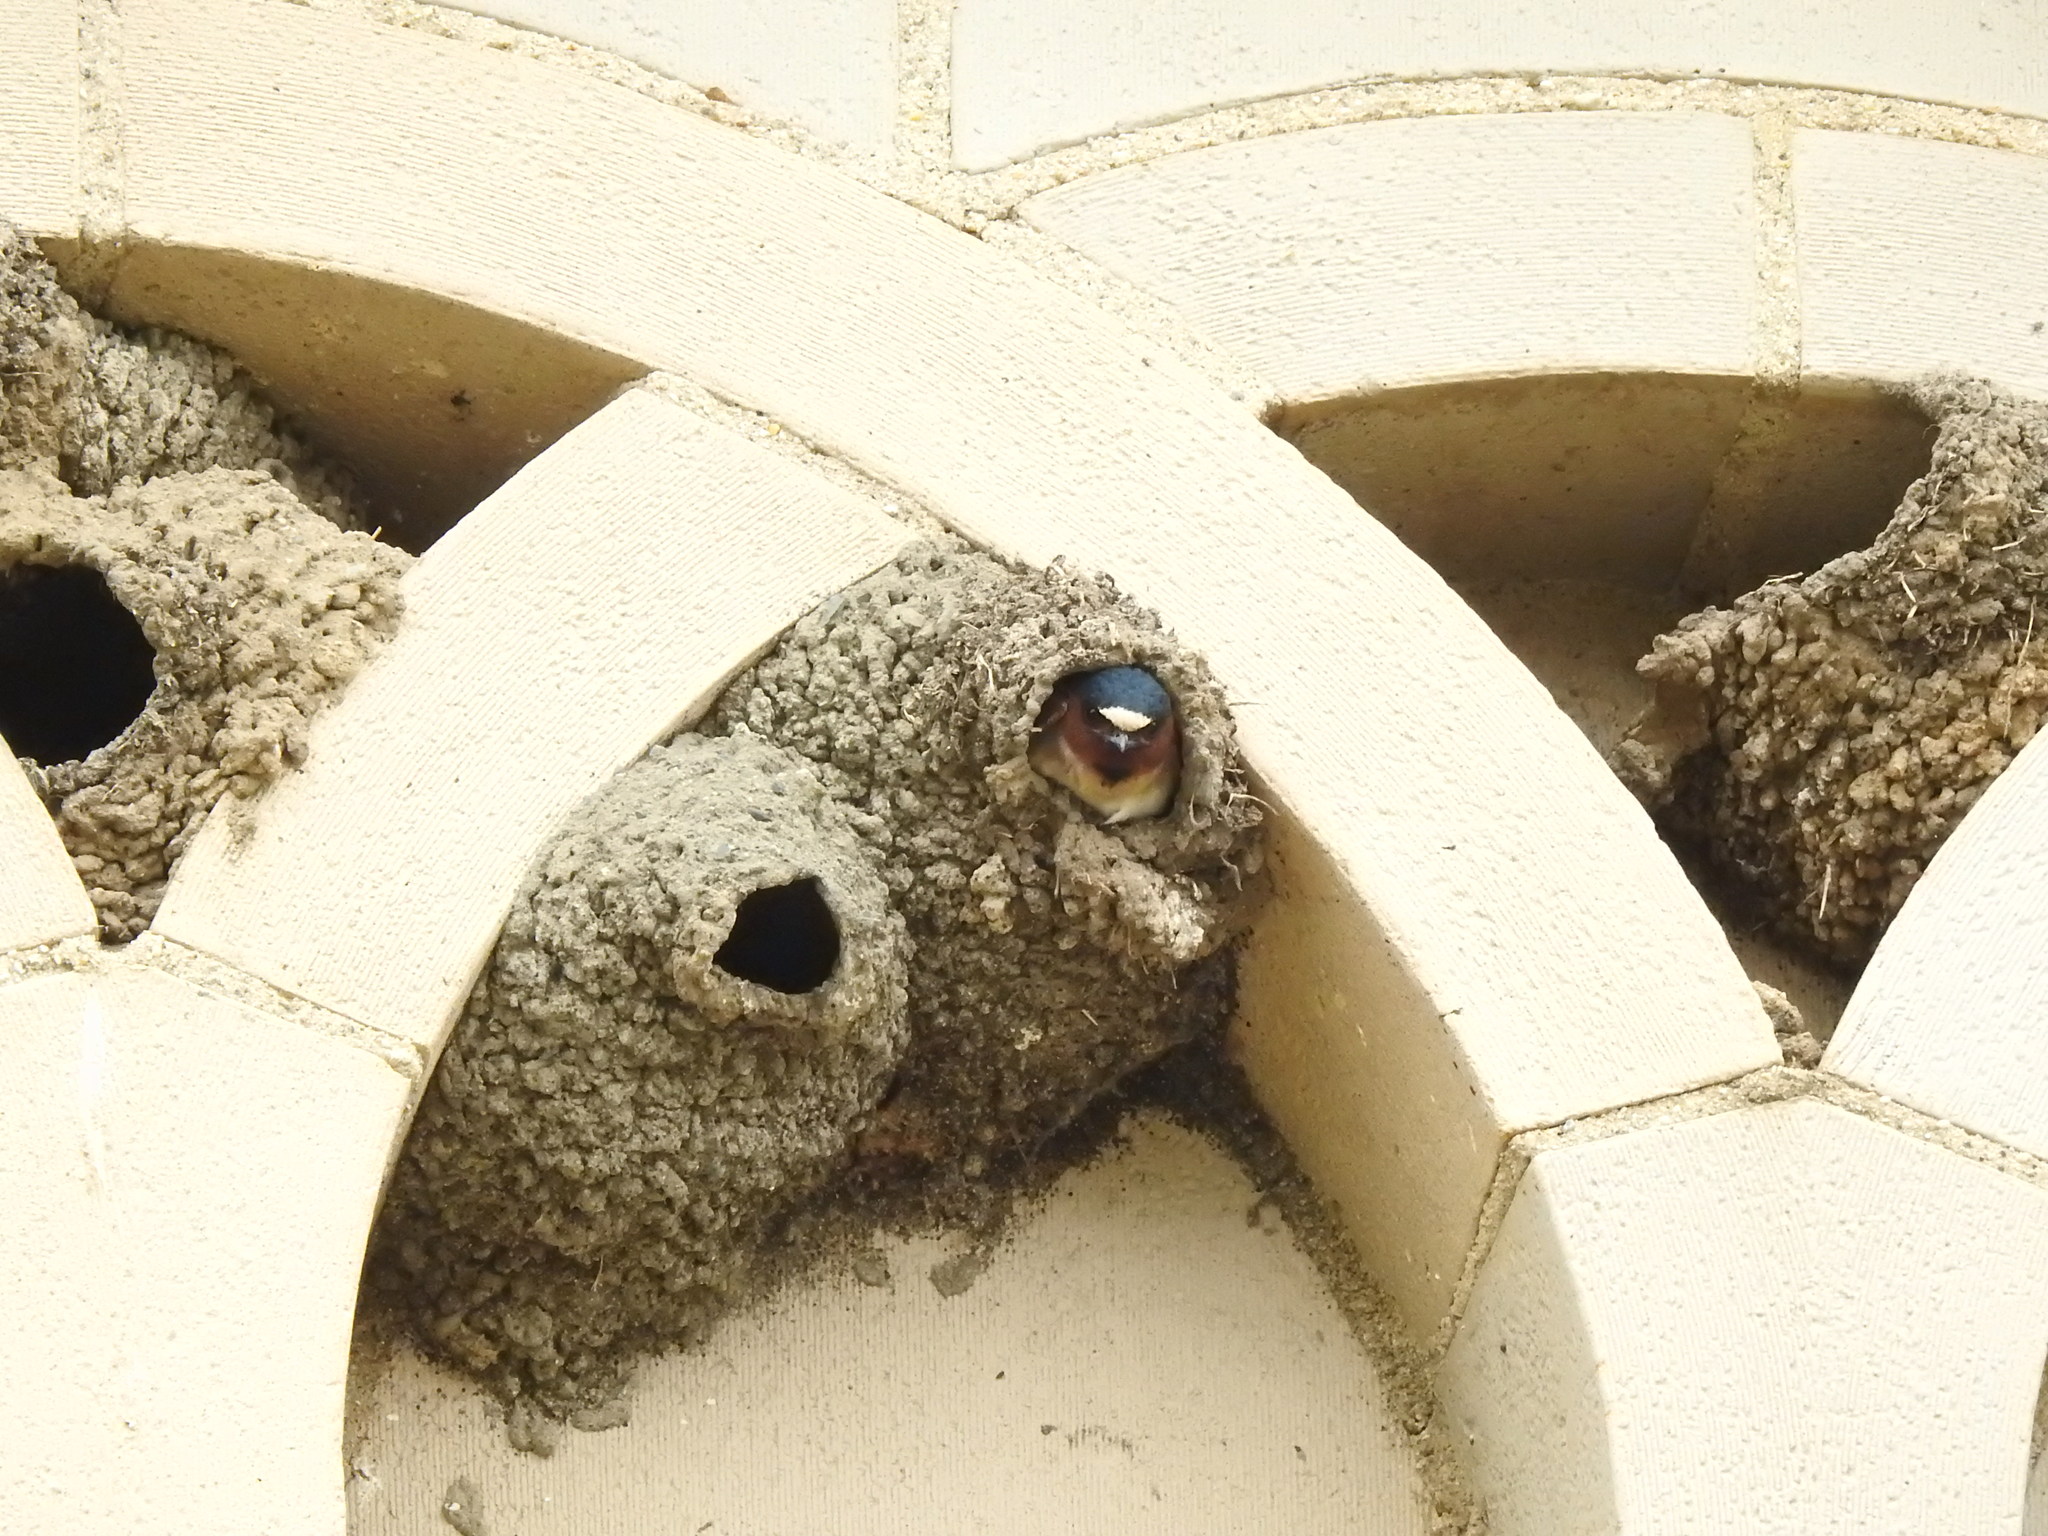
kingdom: Animalia
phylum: Chordata
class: Aves
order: Passeriformes
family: Hirundinidae
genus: Petrochelidon
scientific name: Petrochelidon pyrrhonota
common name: American cliff swallow
